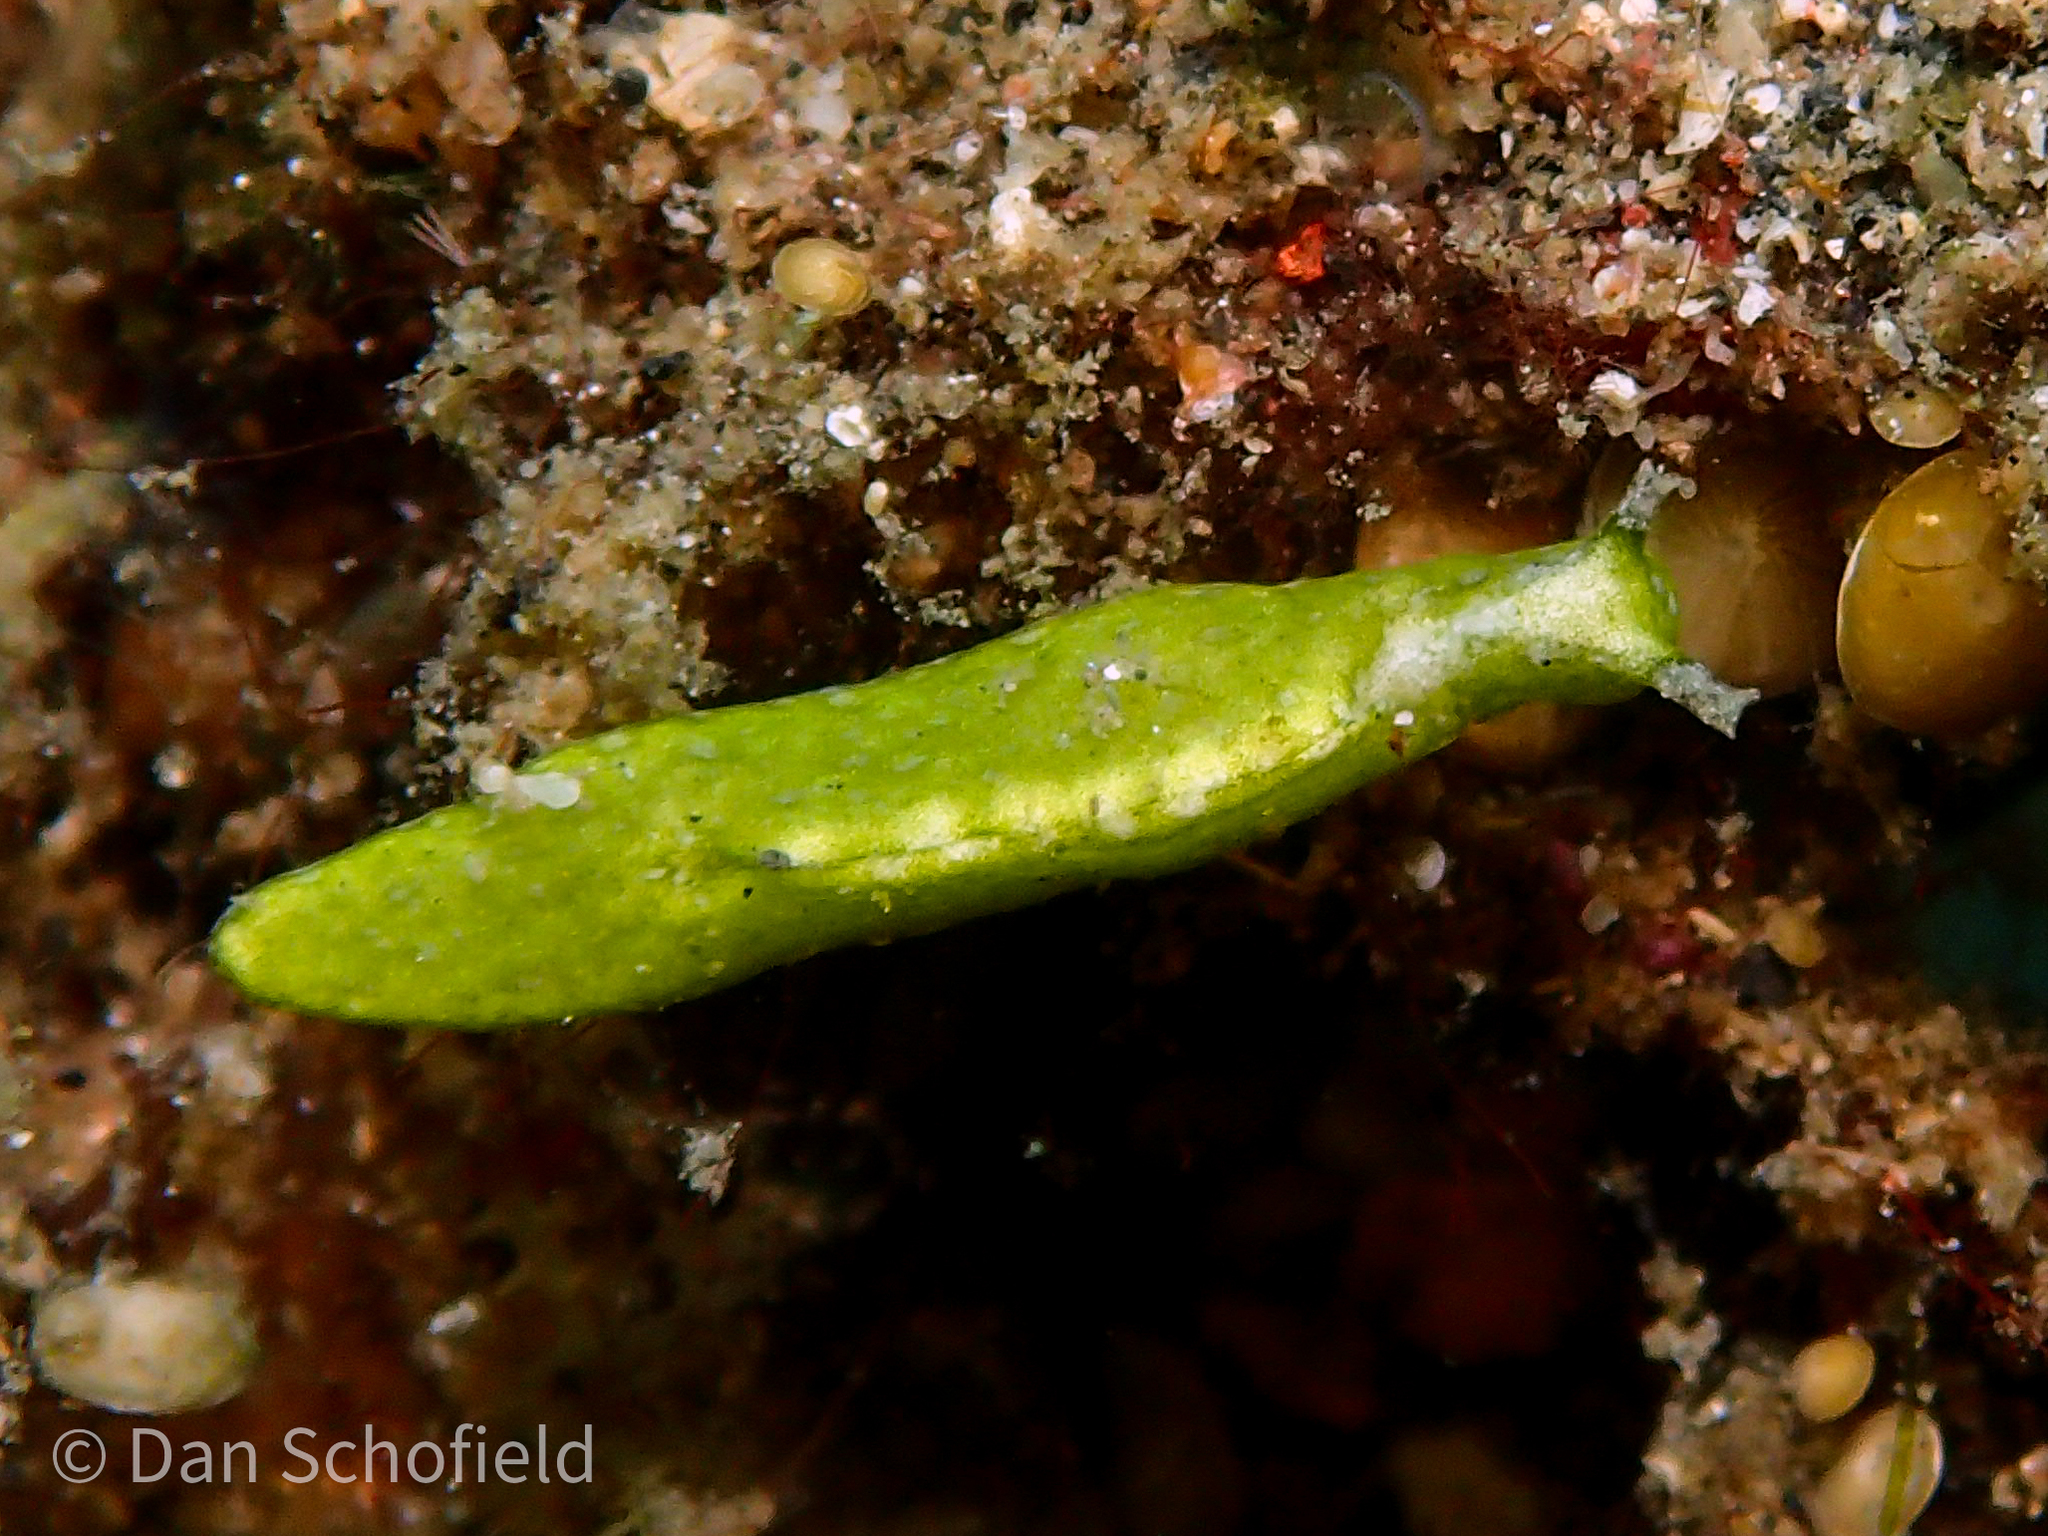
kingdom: Animalia
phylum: Mollusca
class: Gastropoda
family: Plakobranchidae
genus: Elysia
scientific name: Elysia pusilla
